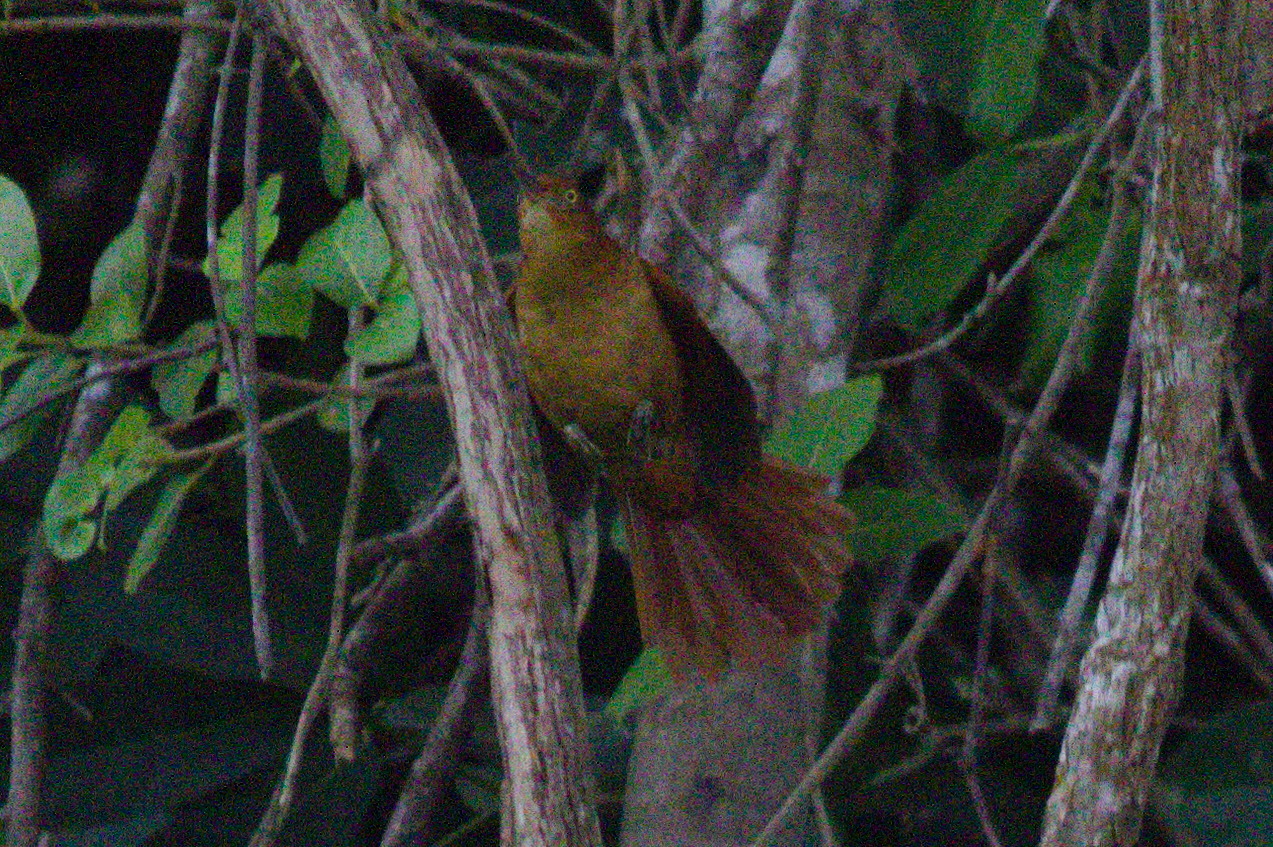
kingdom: Animalia
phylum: Chordata
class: Aves
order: Passeriformes
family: Furnariidae
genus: Hylocryptus
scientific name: Hylocryptus rectirostris
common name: Henna-capped foliage-gleaner
